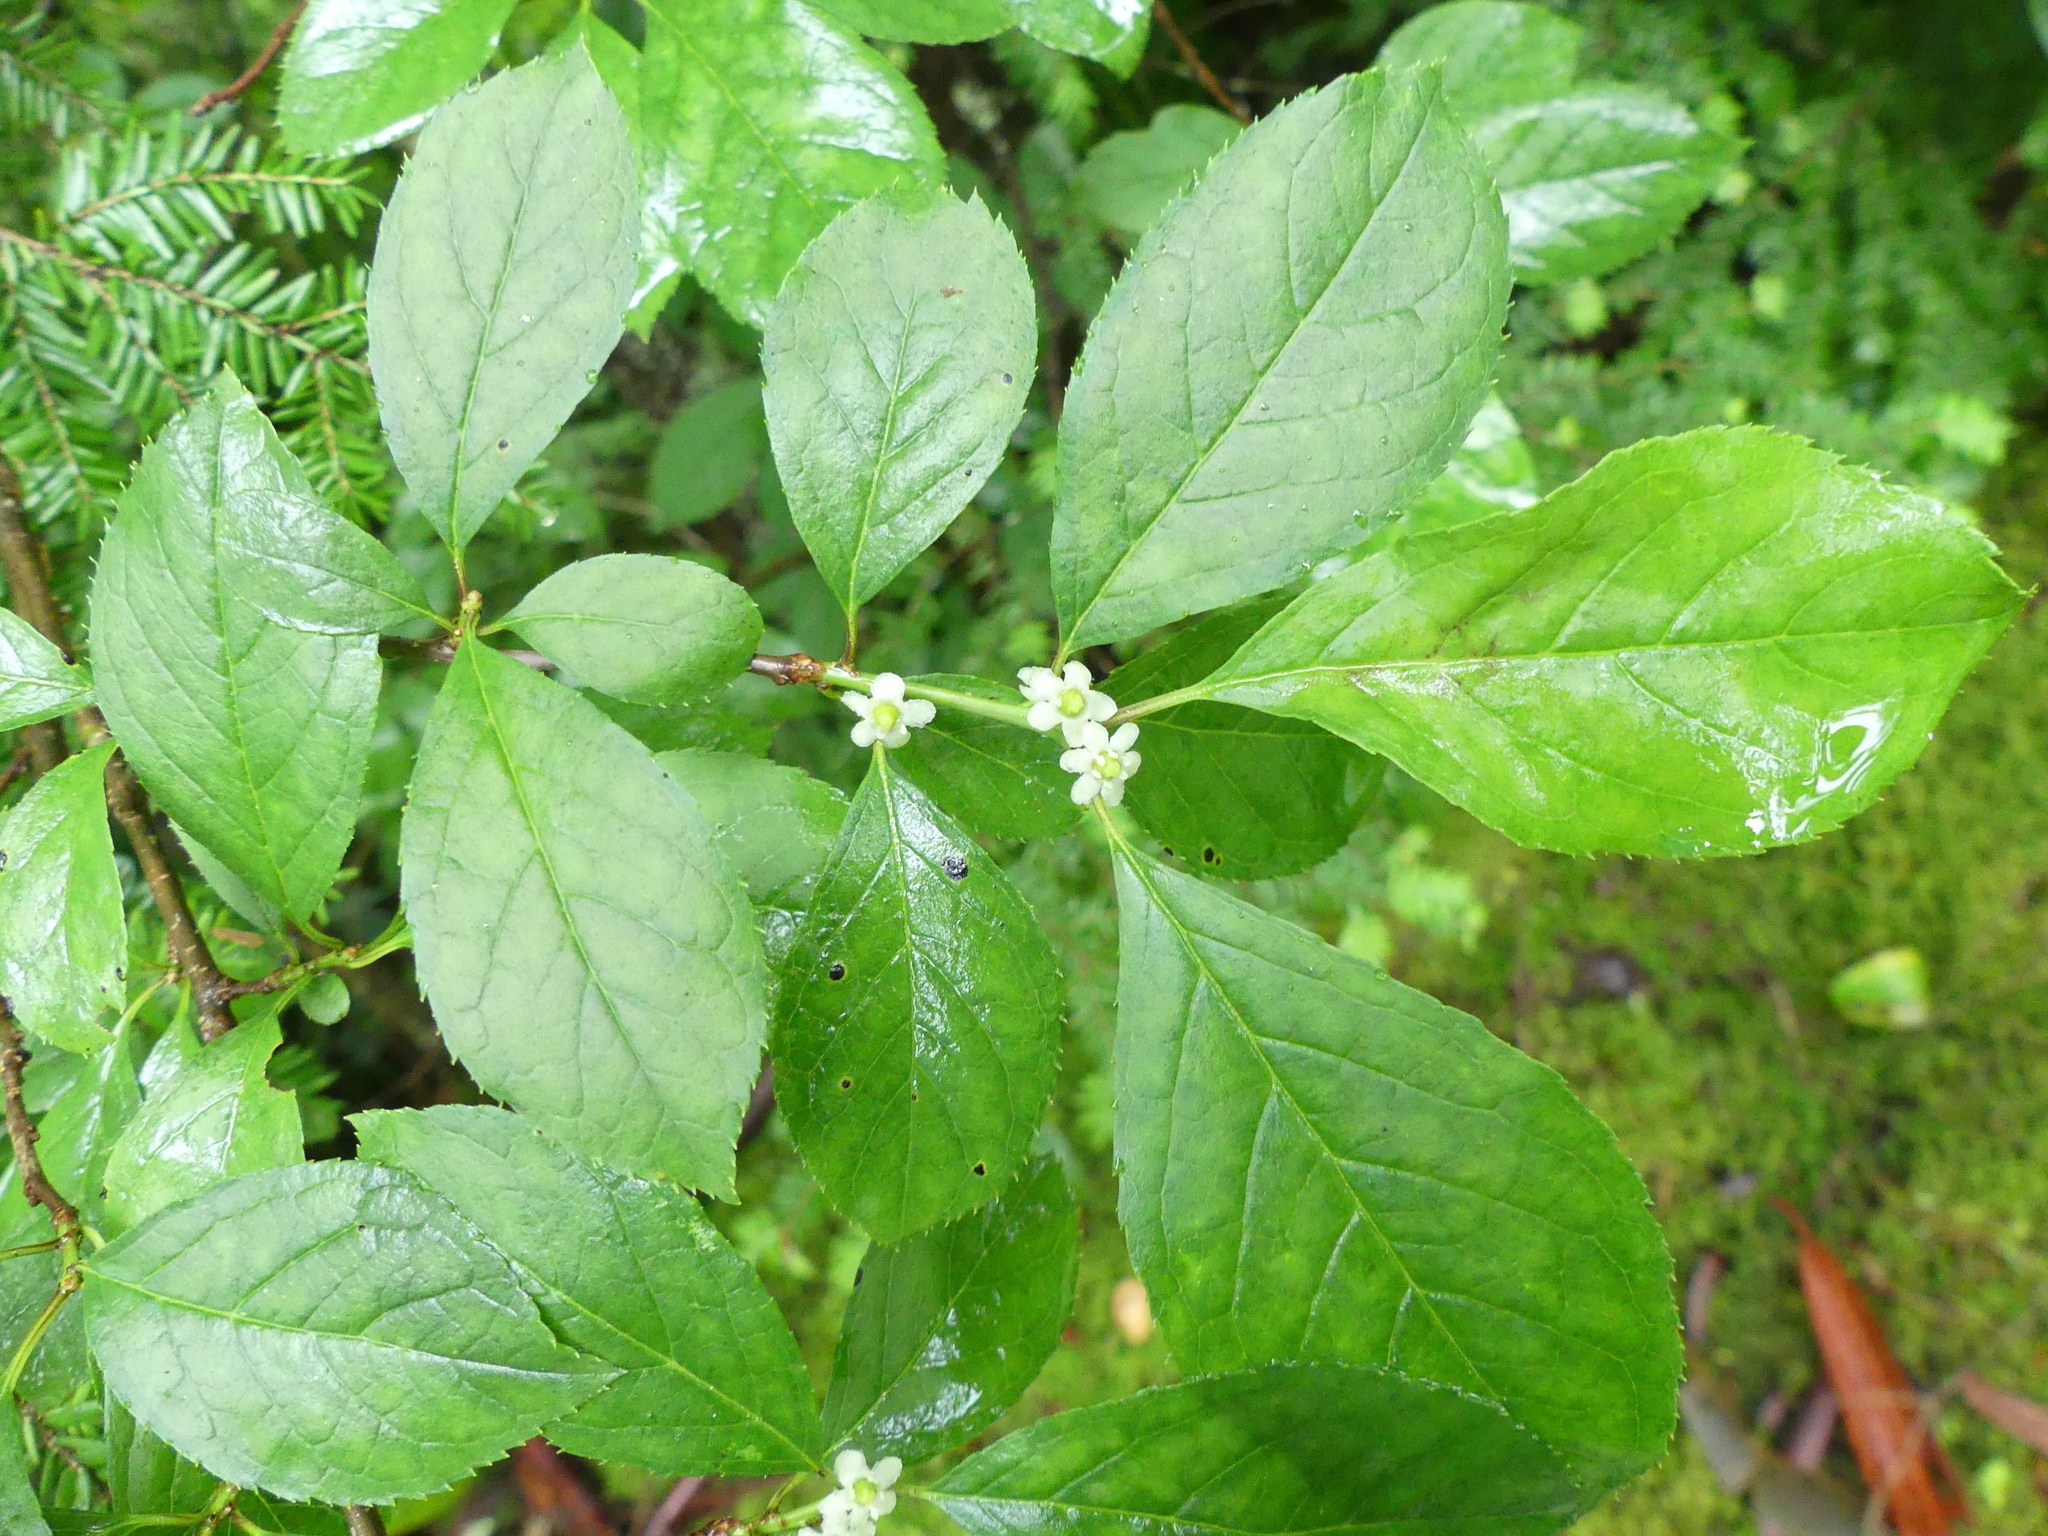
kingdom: Plantae
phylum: Tracheophyta
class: Magnoliopsida
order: Aquifoliales
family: Aquifoliaceae
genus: Ilex
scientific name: Ilex verticillata
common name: Virginia winterberry
